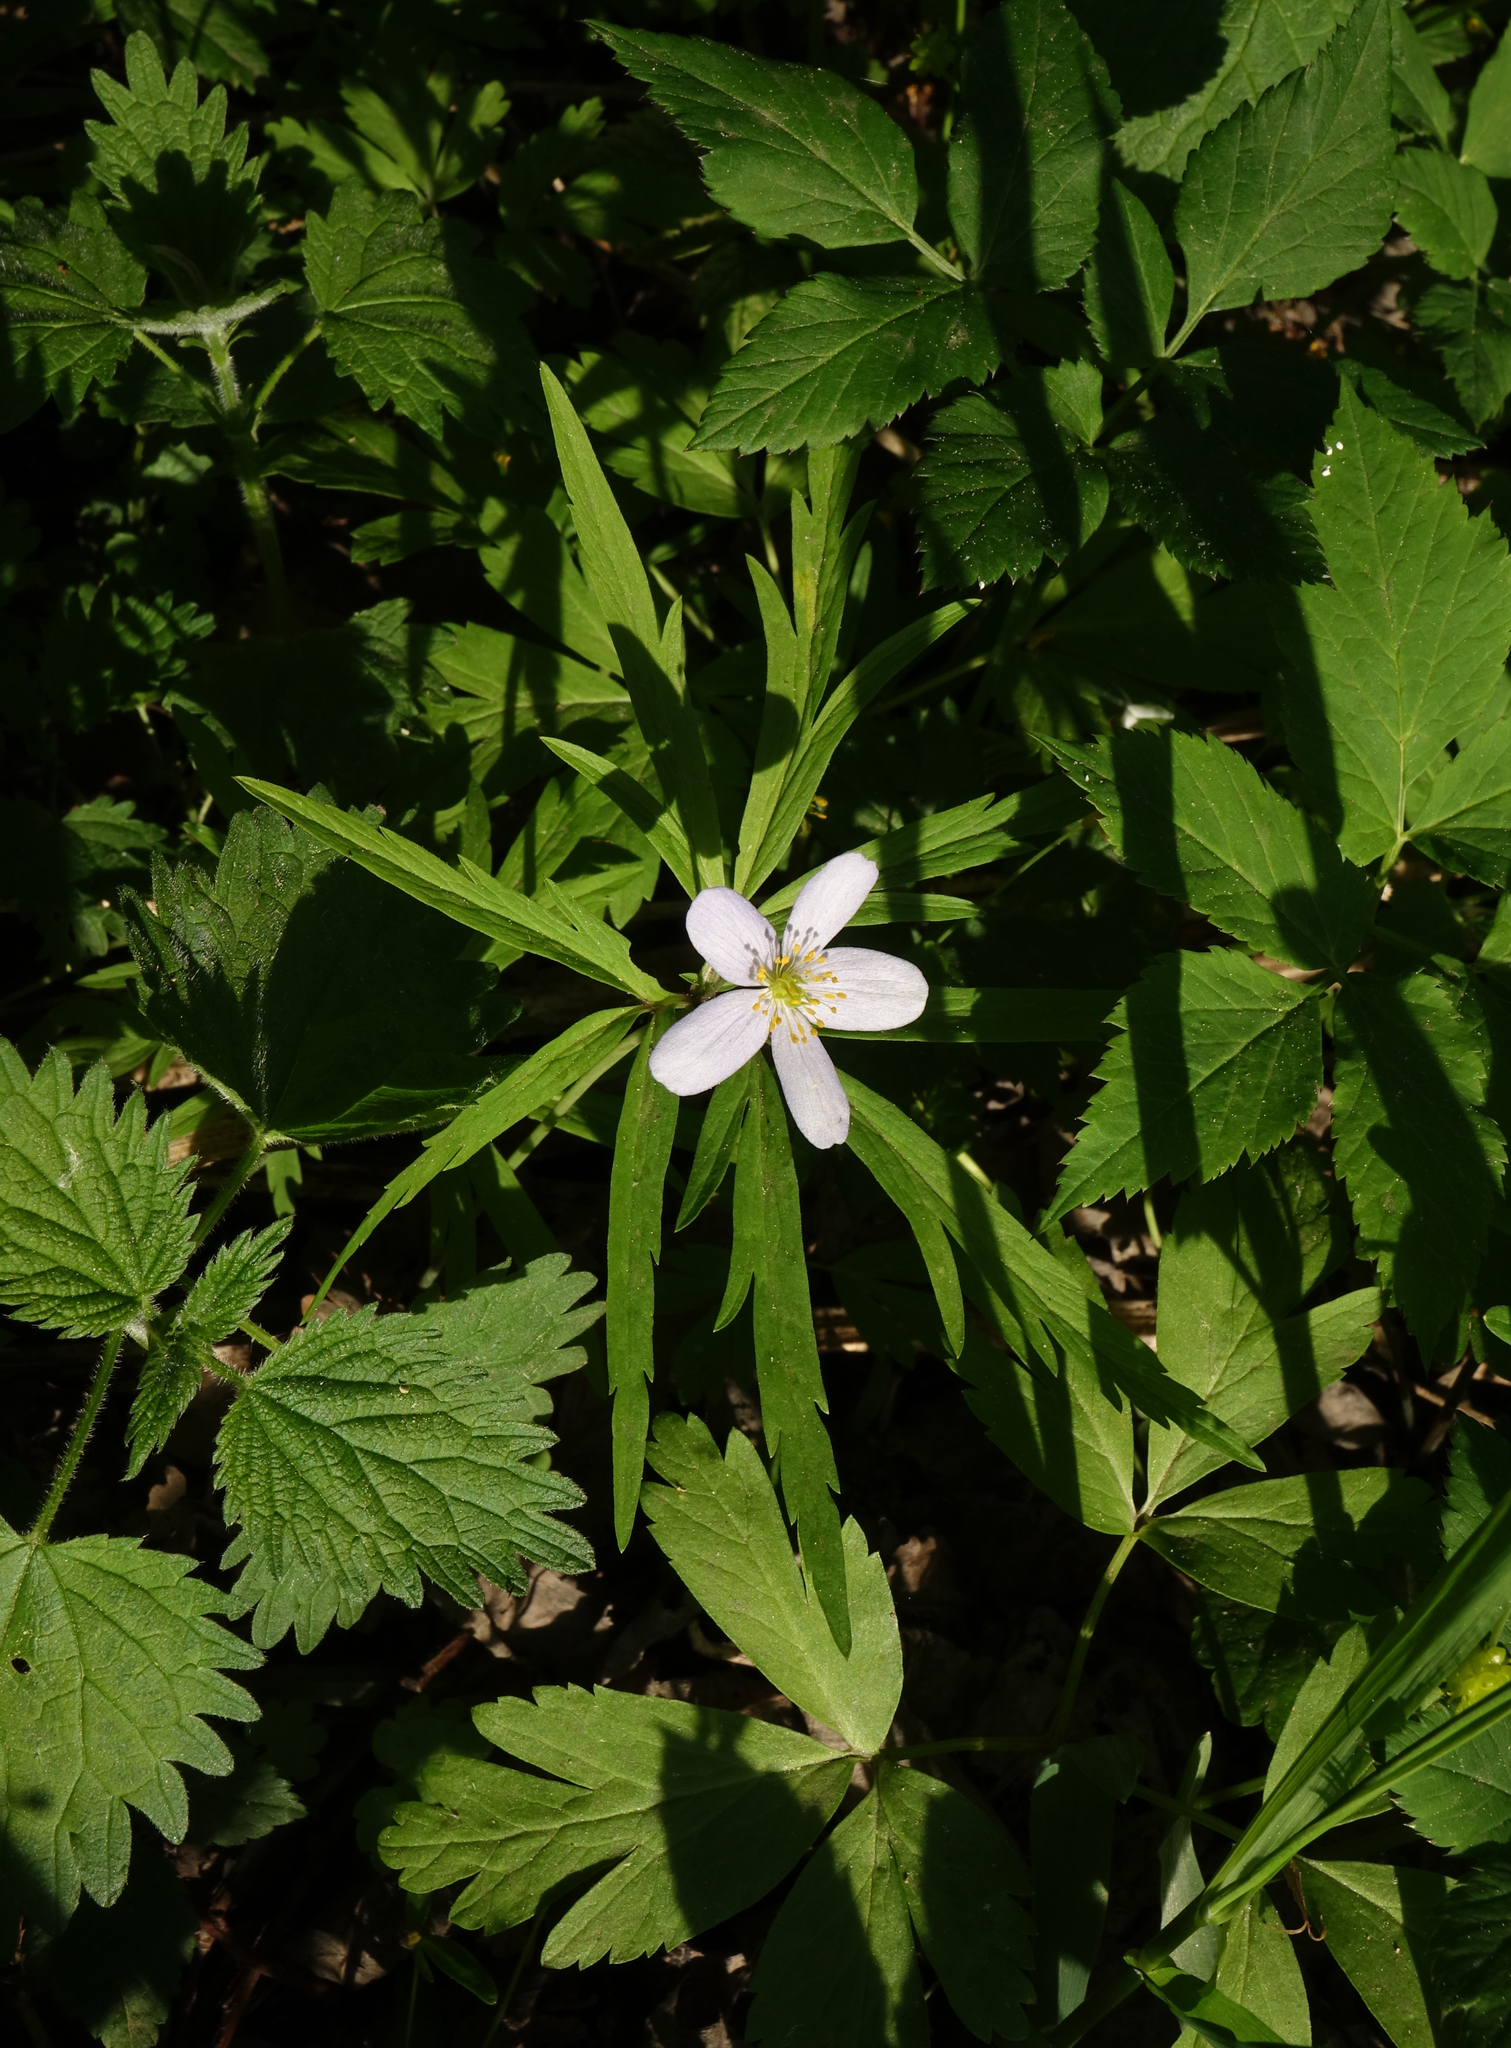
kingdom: Plantae
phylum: Tracheophyta
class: Magnoliopsida
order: Ranunculales
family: Ranunculaceae
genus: Anemone
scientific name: Anemone caerulea
